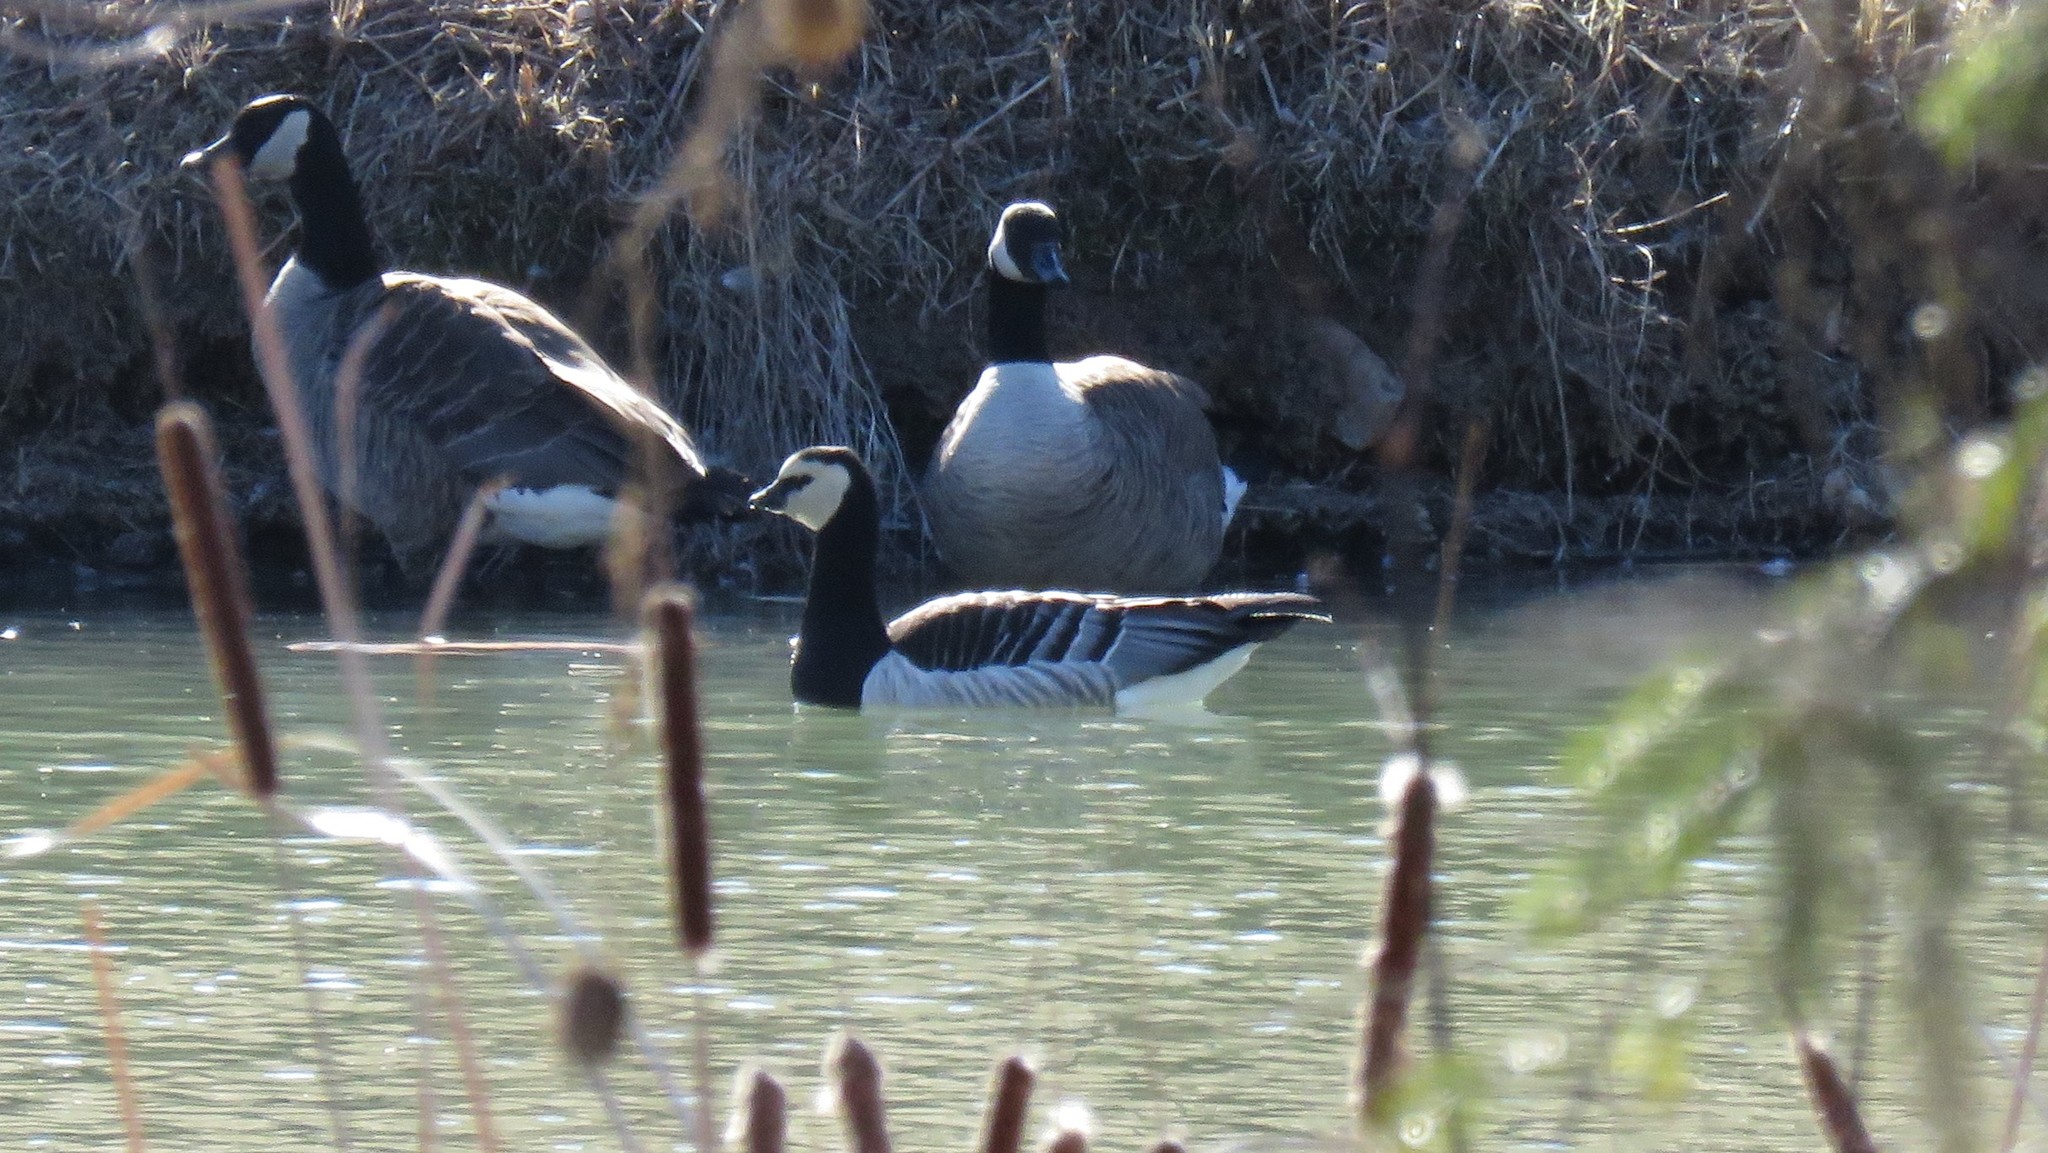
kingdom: Animalia
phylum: Chordata
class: Aves
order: Anseriformes
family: Anatidae
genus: Branta
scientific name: Branta leucopsis
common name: Barnacle goose
